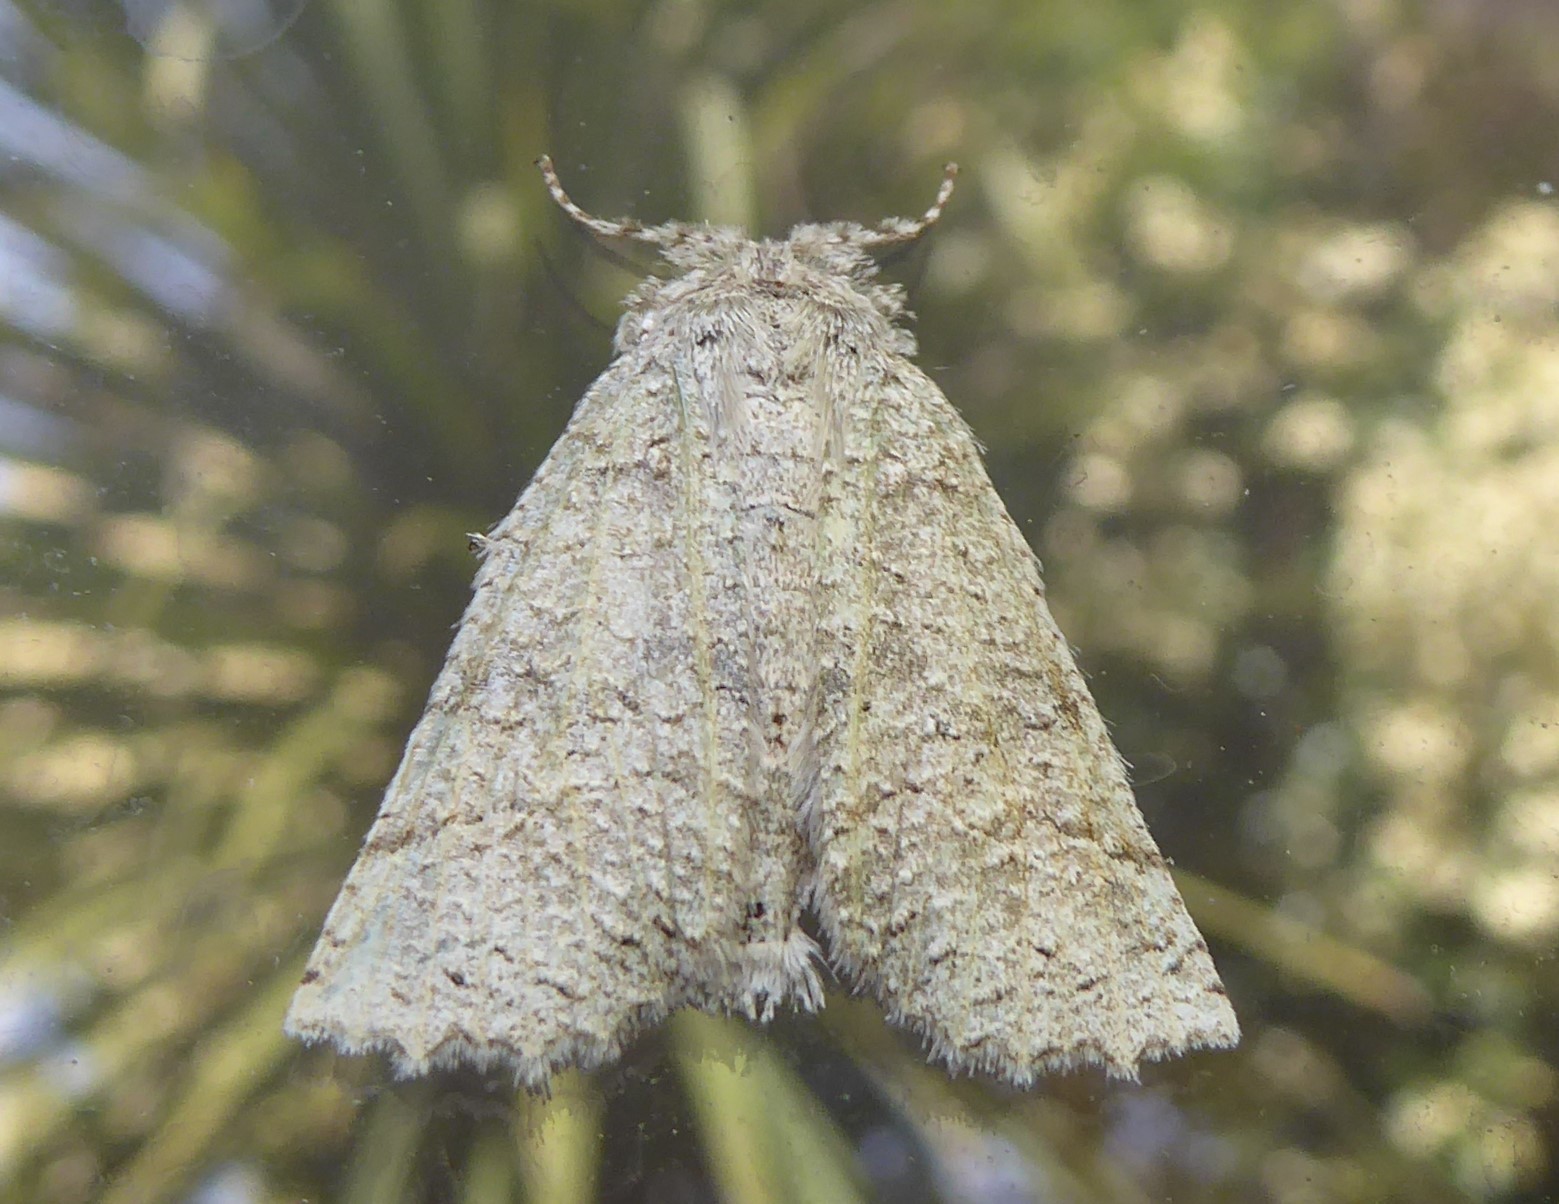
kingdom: Animalia
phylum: Arthropoda
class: Insecta
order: Lepidoptera
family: Geometridae
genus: Declana
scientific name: Declana floccosa
